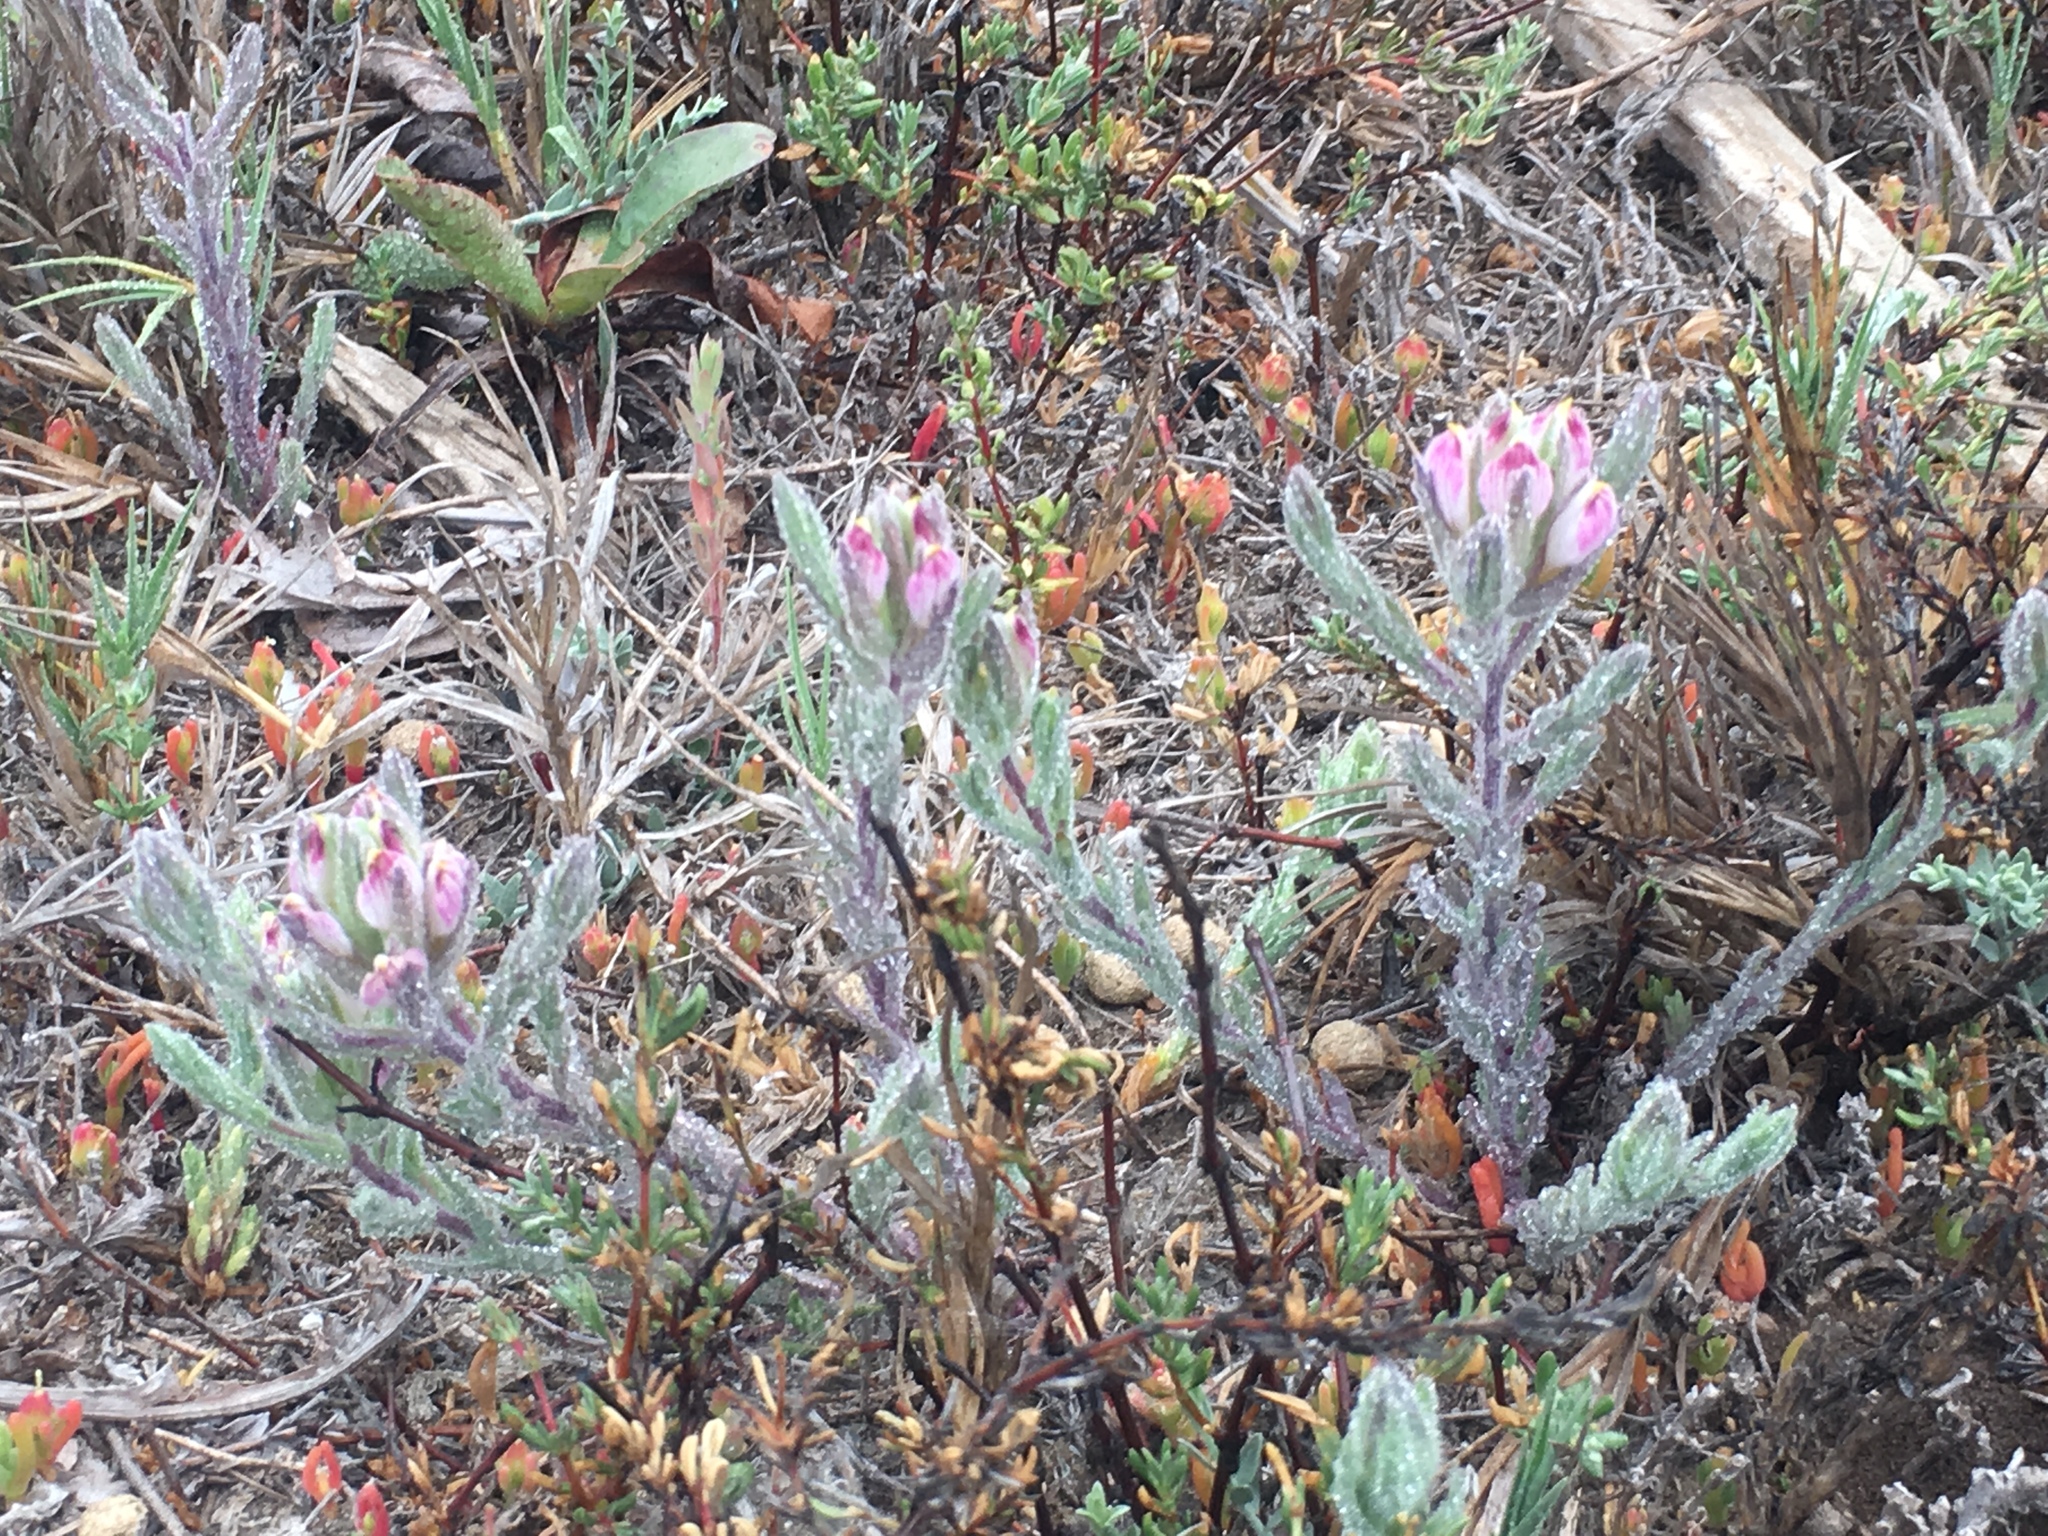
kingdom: Plantae
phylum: Tracheophyta
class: Magnoliopsida
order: Lamiales
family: Orobanchaceae
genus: Chloropyron
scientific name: Chloropyron maritimum
